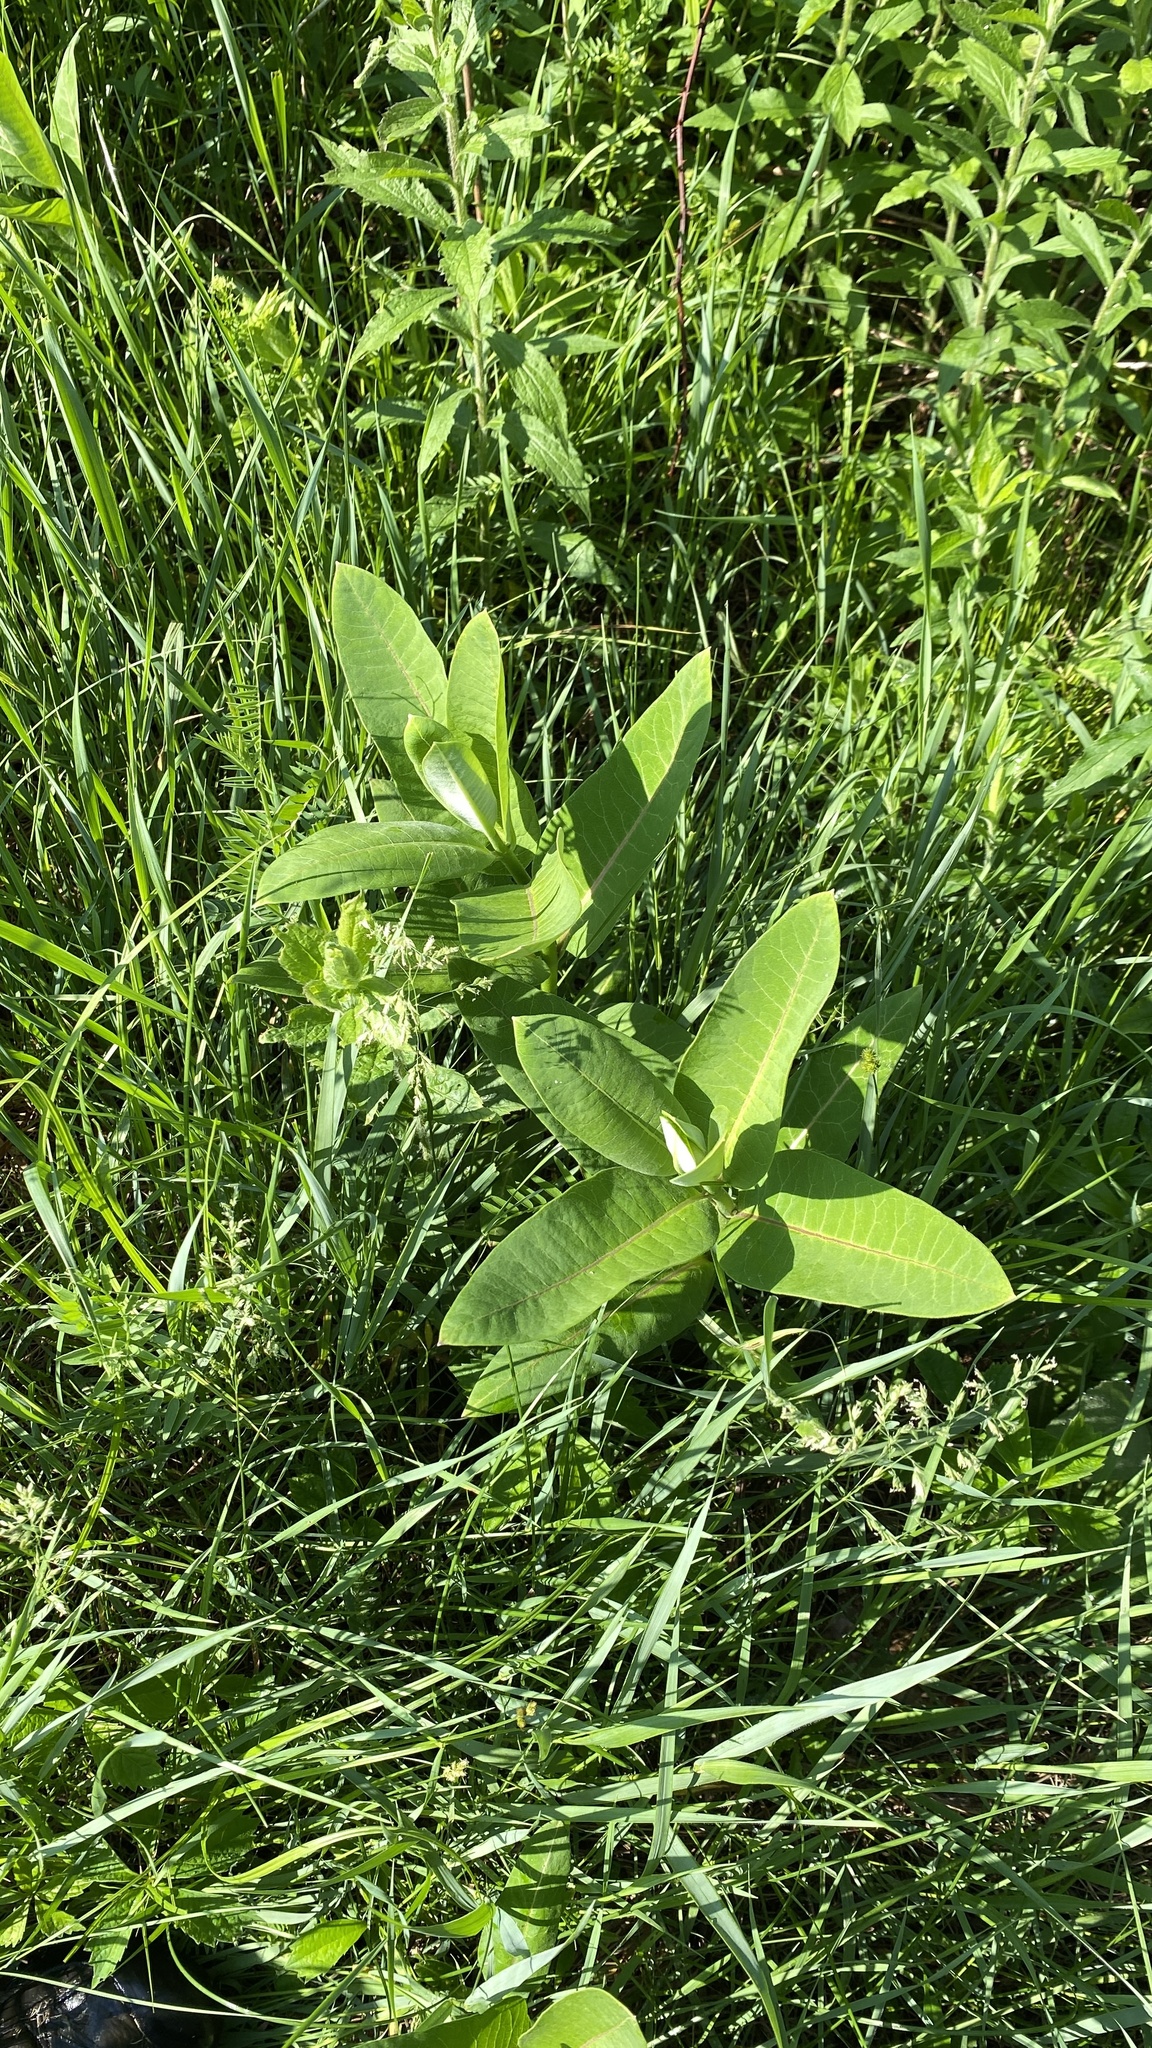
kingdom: Plantae
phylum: Tracheophyta
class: Magnoliopsida
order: Gentianales
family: Apocynaceae
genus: Asclepias
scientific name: Asclepias syriaca
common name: Common milkweed
